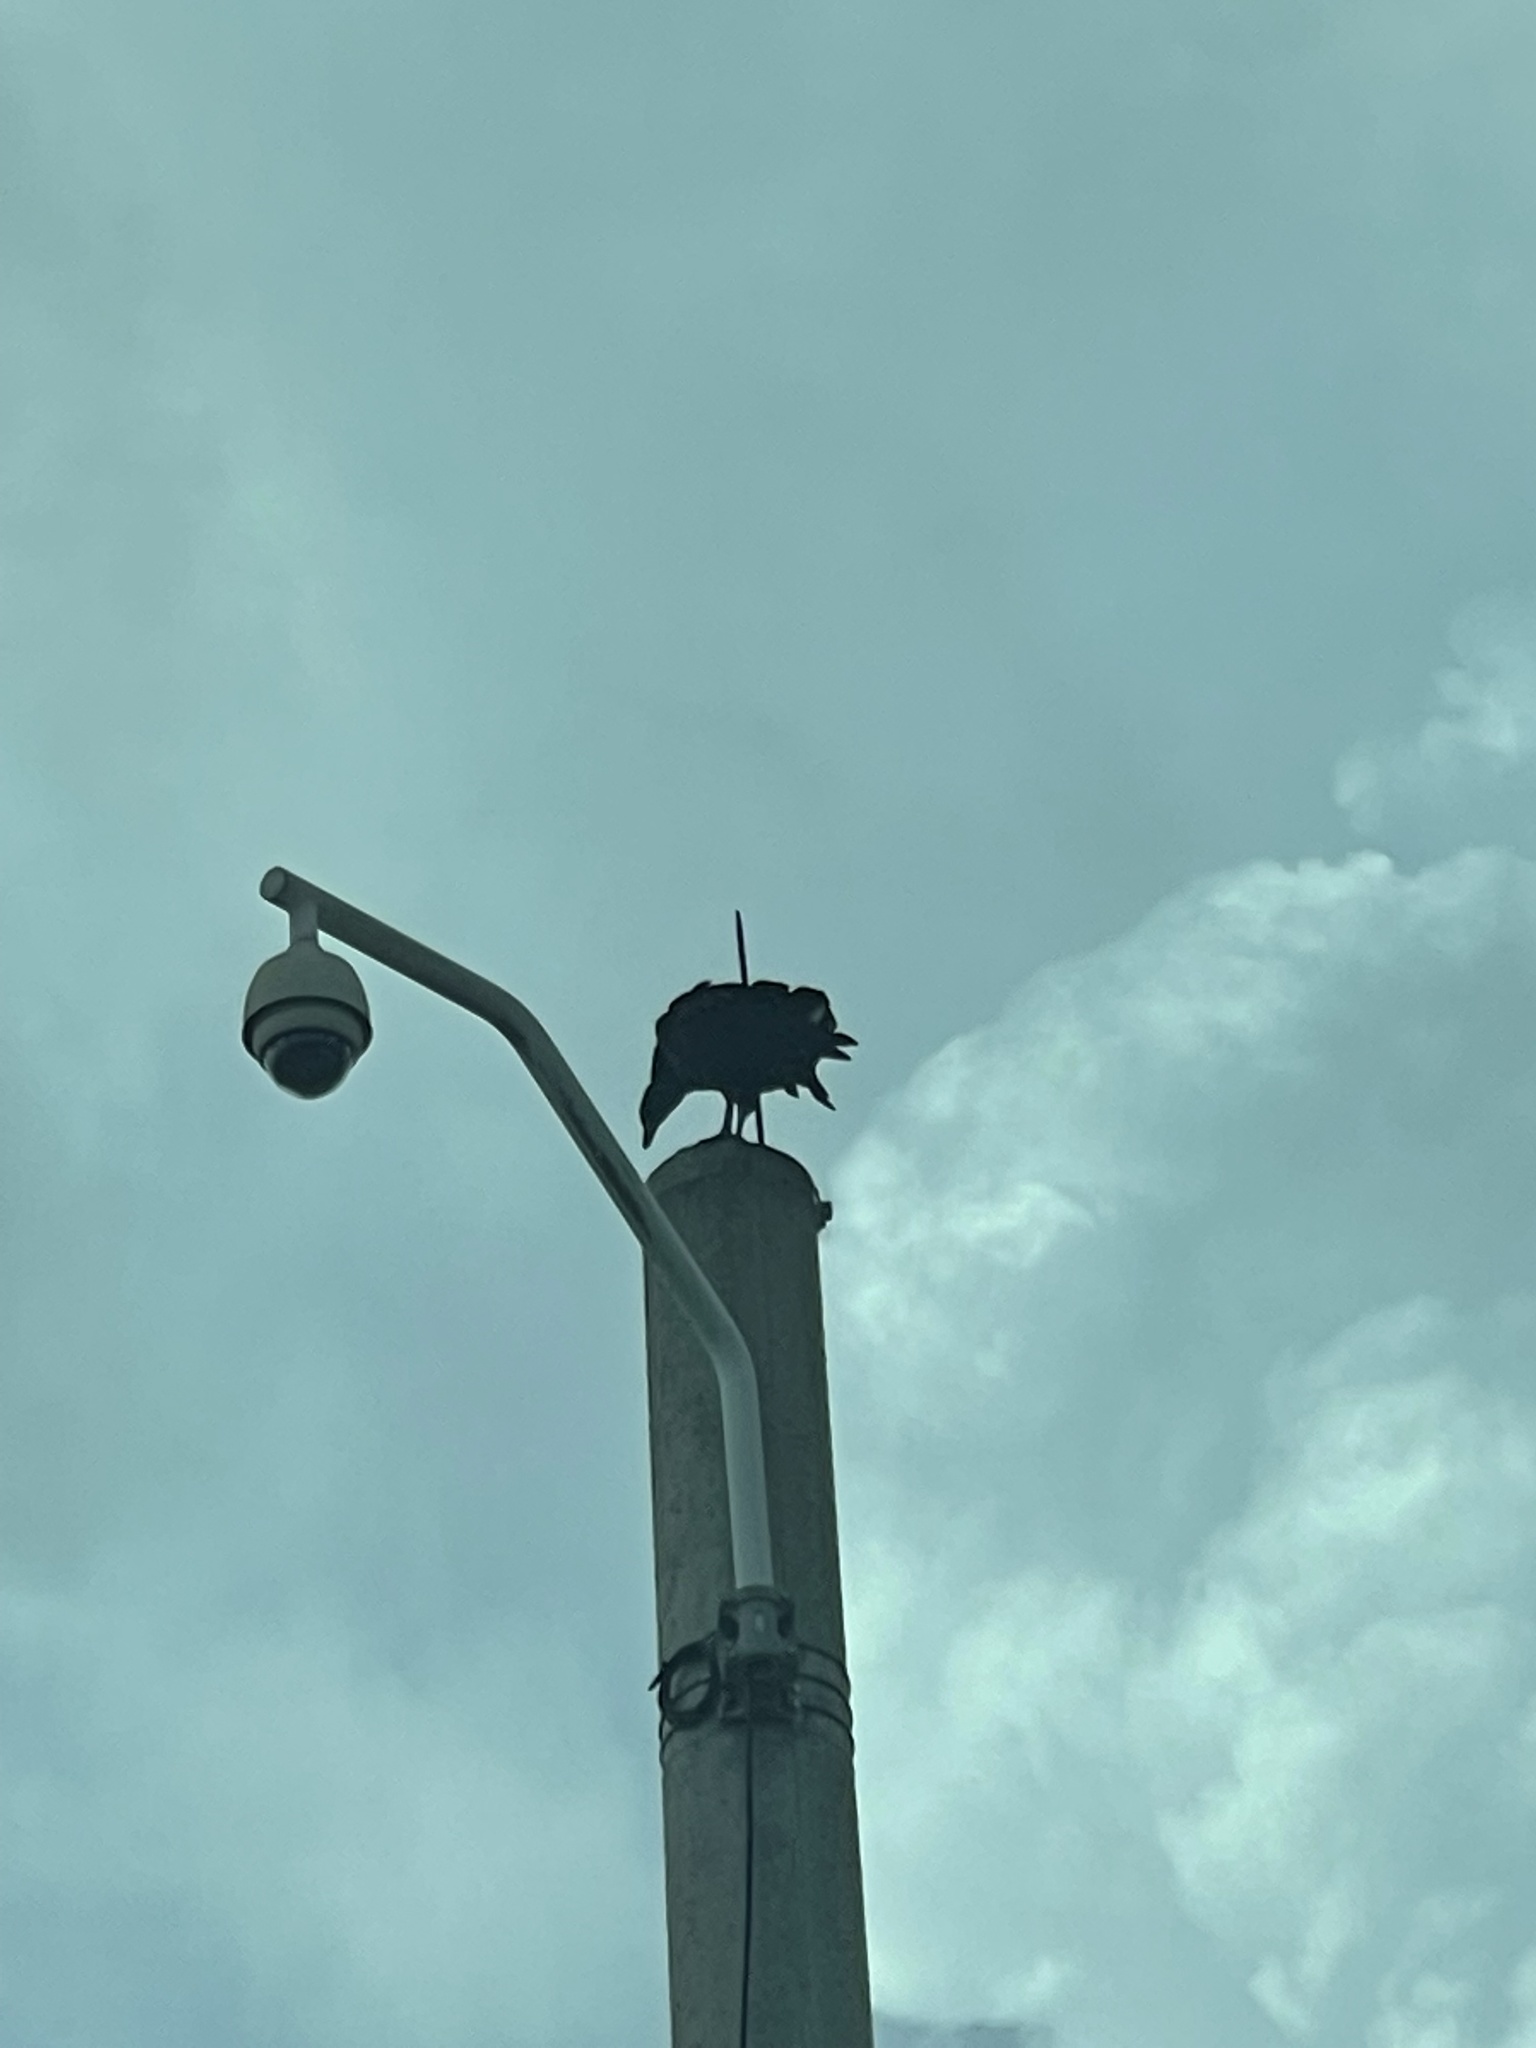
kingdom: Animalia
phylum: Chordata
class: Aves
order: Accipitriformes
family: Cathartidae
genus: Coragyps
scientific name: Coragyps atratus
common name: Black vulture
